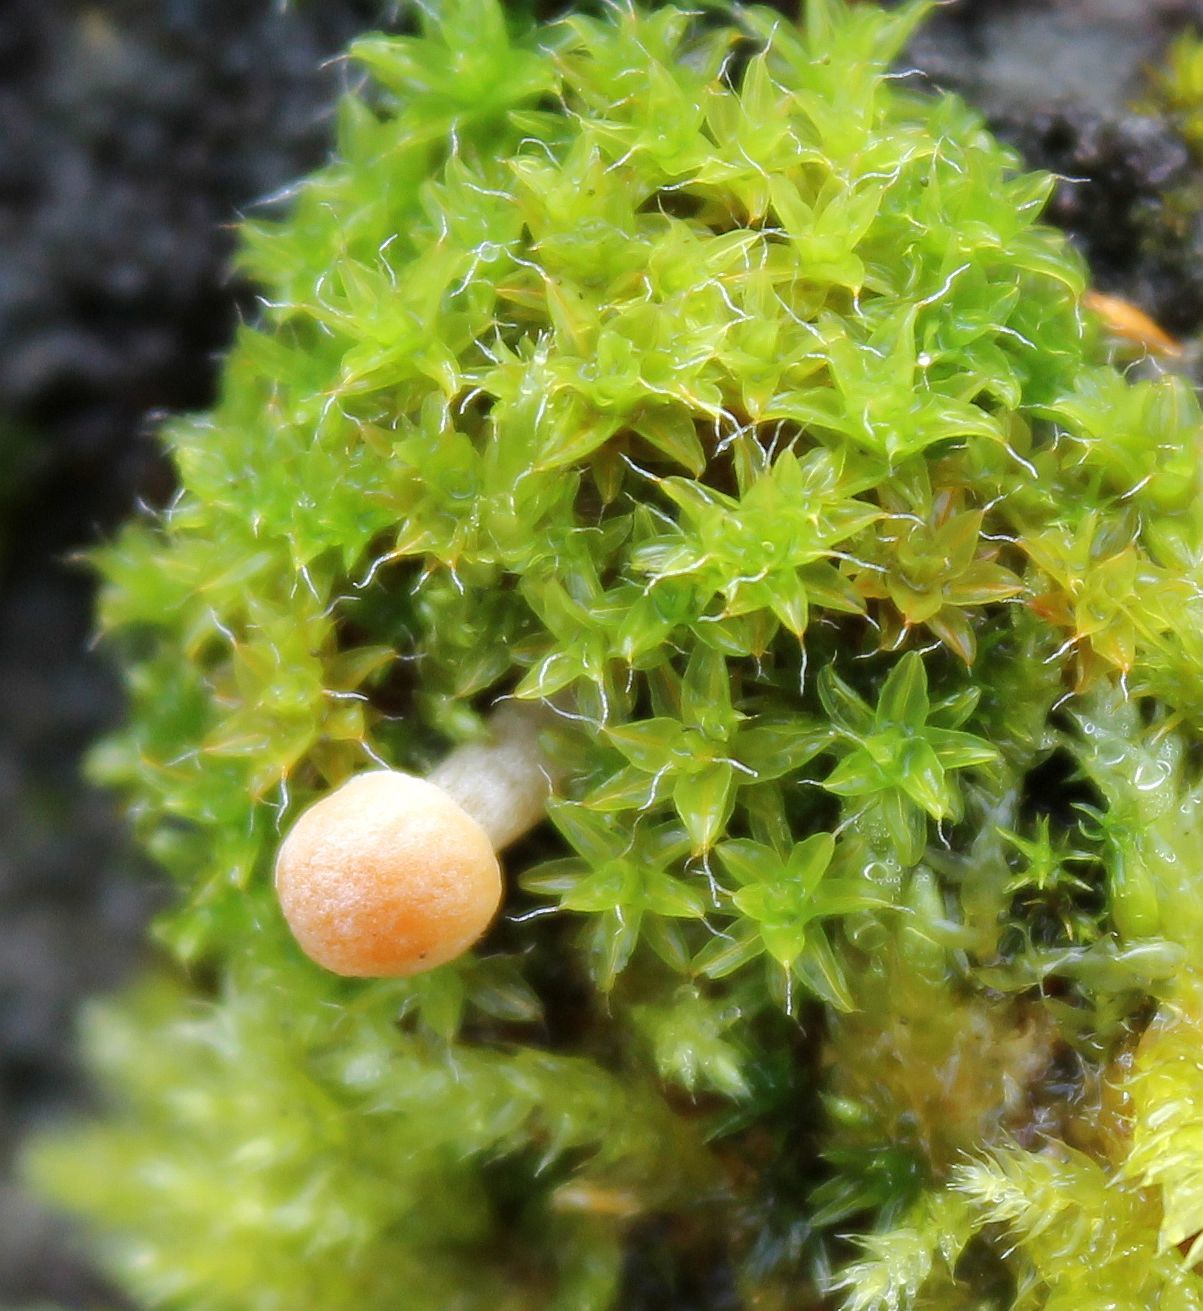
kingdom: Plantae
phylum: Bryophyta
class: Bryopsida
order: Pottiales
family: Pottiaceae
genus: Syntrichia
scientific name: Syntrichia ruralis
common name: Sidewalk screw moss
